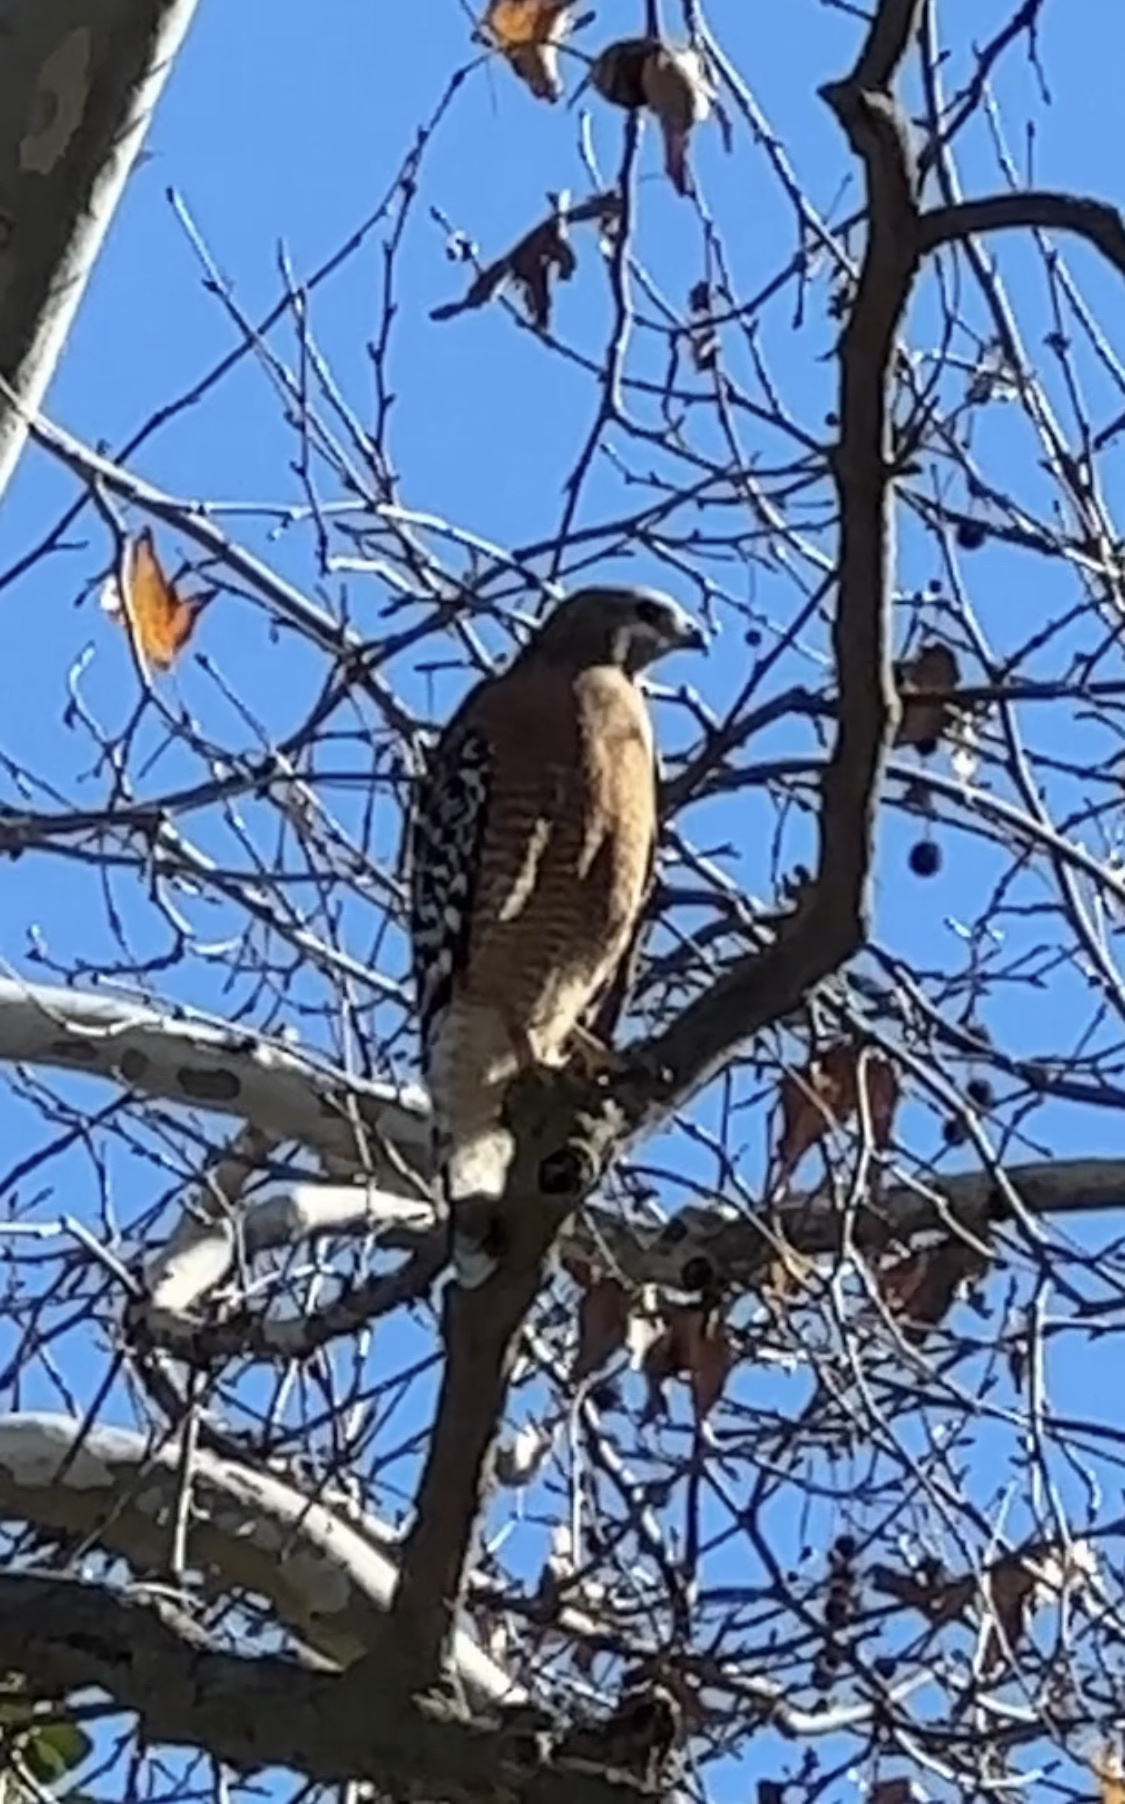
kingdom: Animalia
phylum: Chordata
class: Aves
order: Accipitriformes
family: Accipitridae
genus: Buteo
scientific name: Buteo lineatus
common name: Red-shouldered hawk
